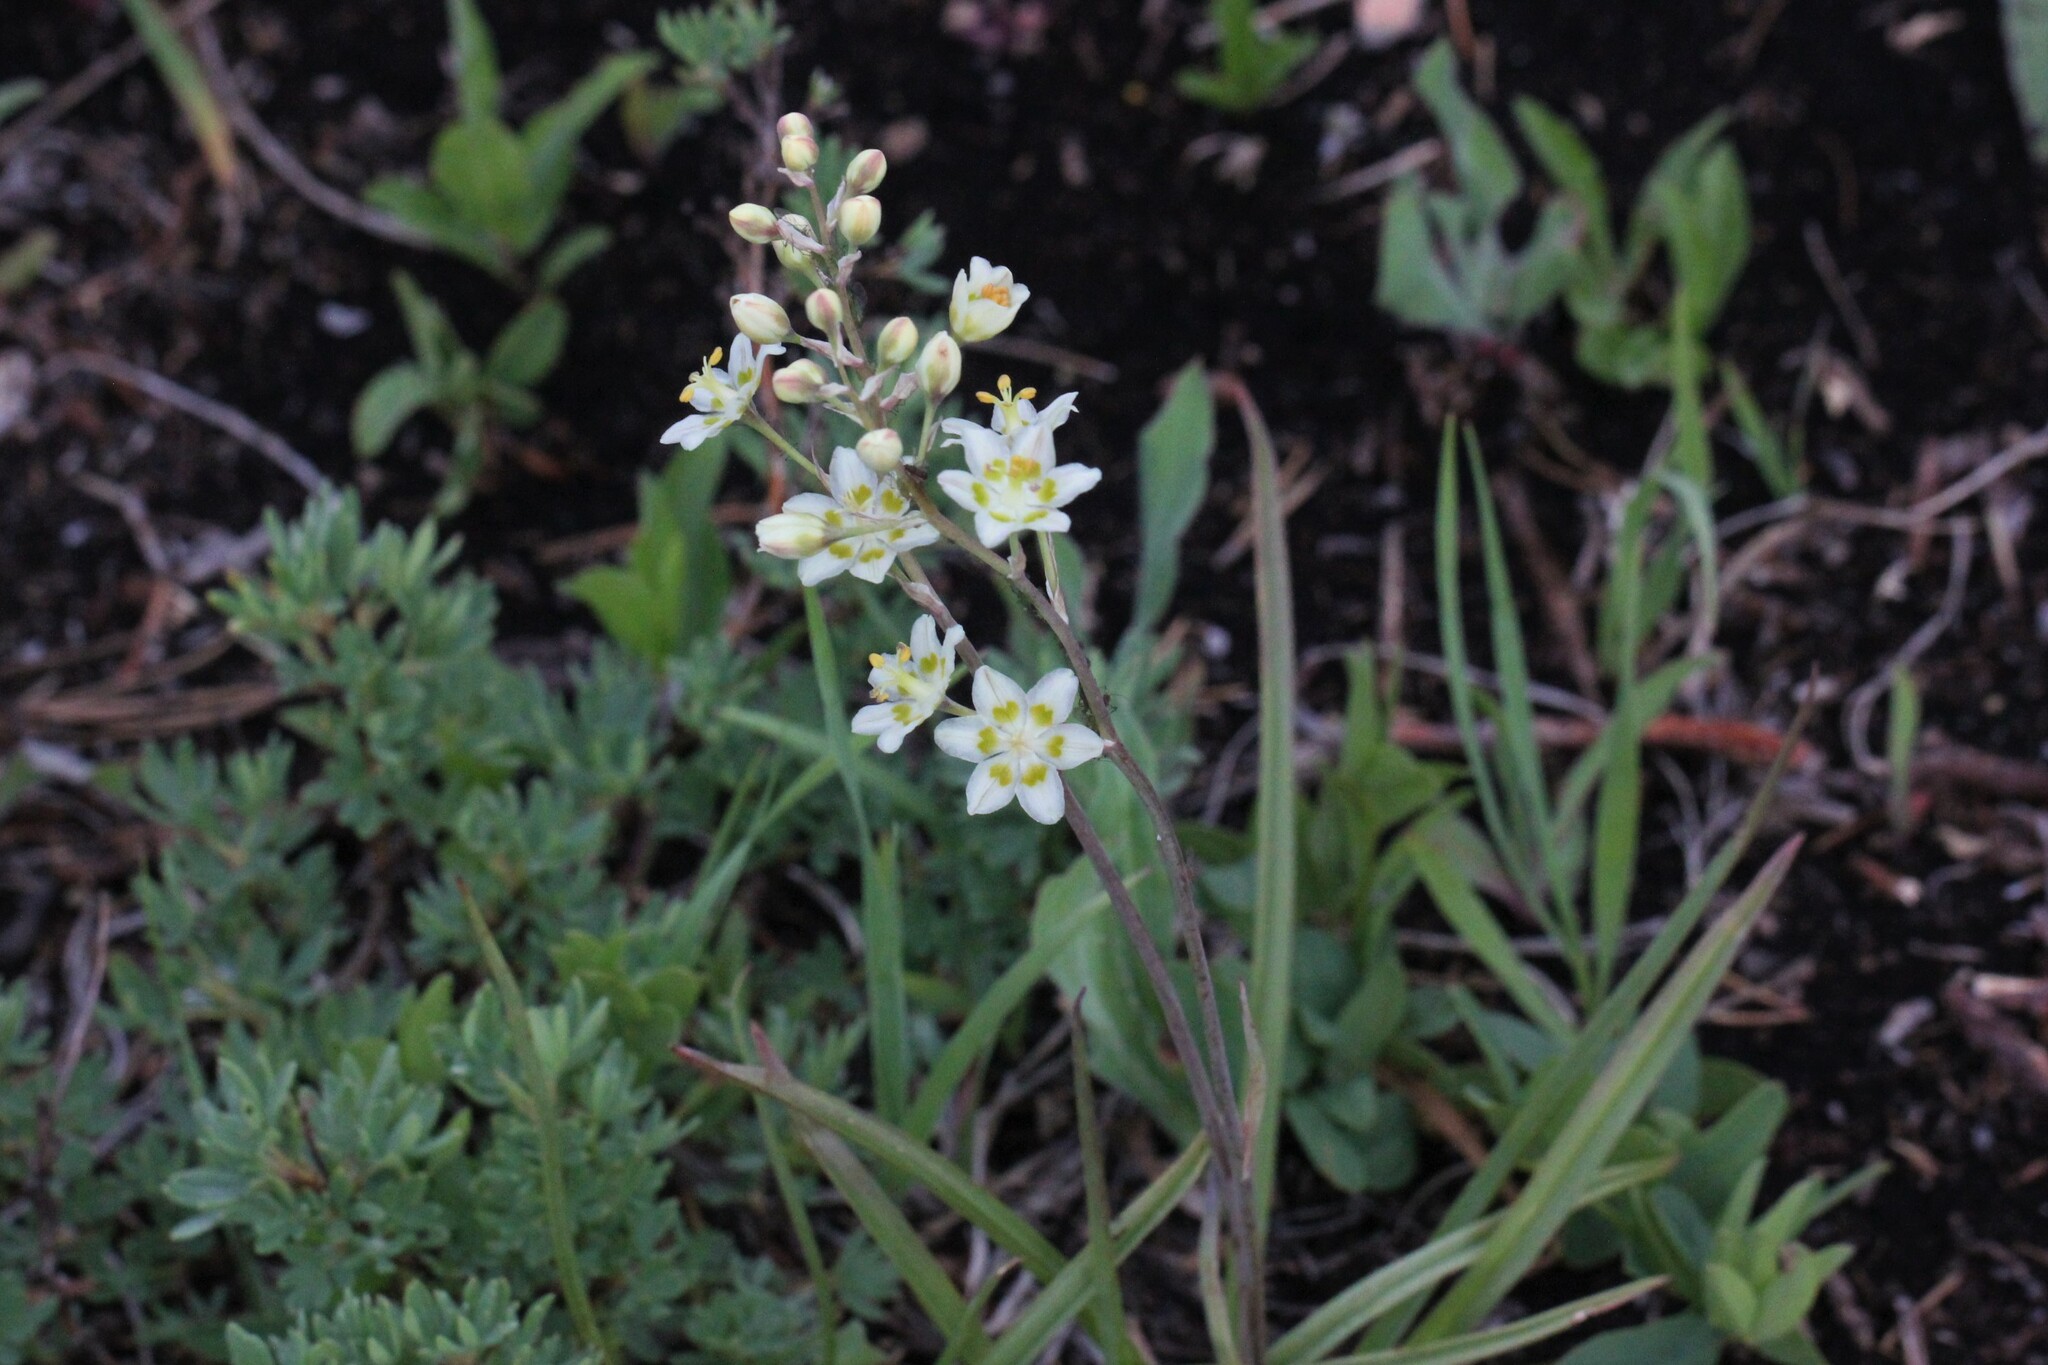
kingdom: Plantae
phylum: Tracheophyta
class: Liliopsida
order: Liliales
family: Melanthiaceae
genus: Anticlea
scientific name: Anticlea elegans
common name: Mountain death camas
